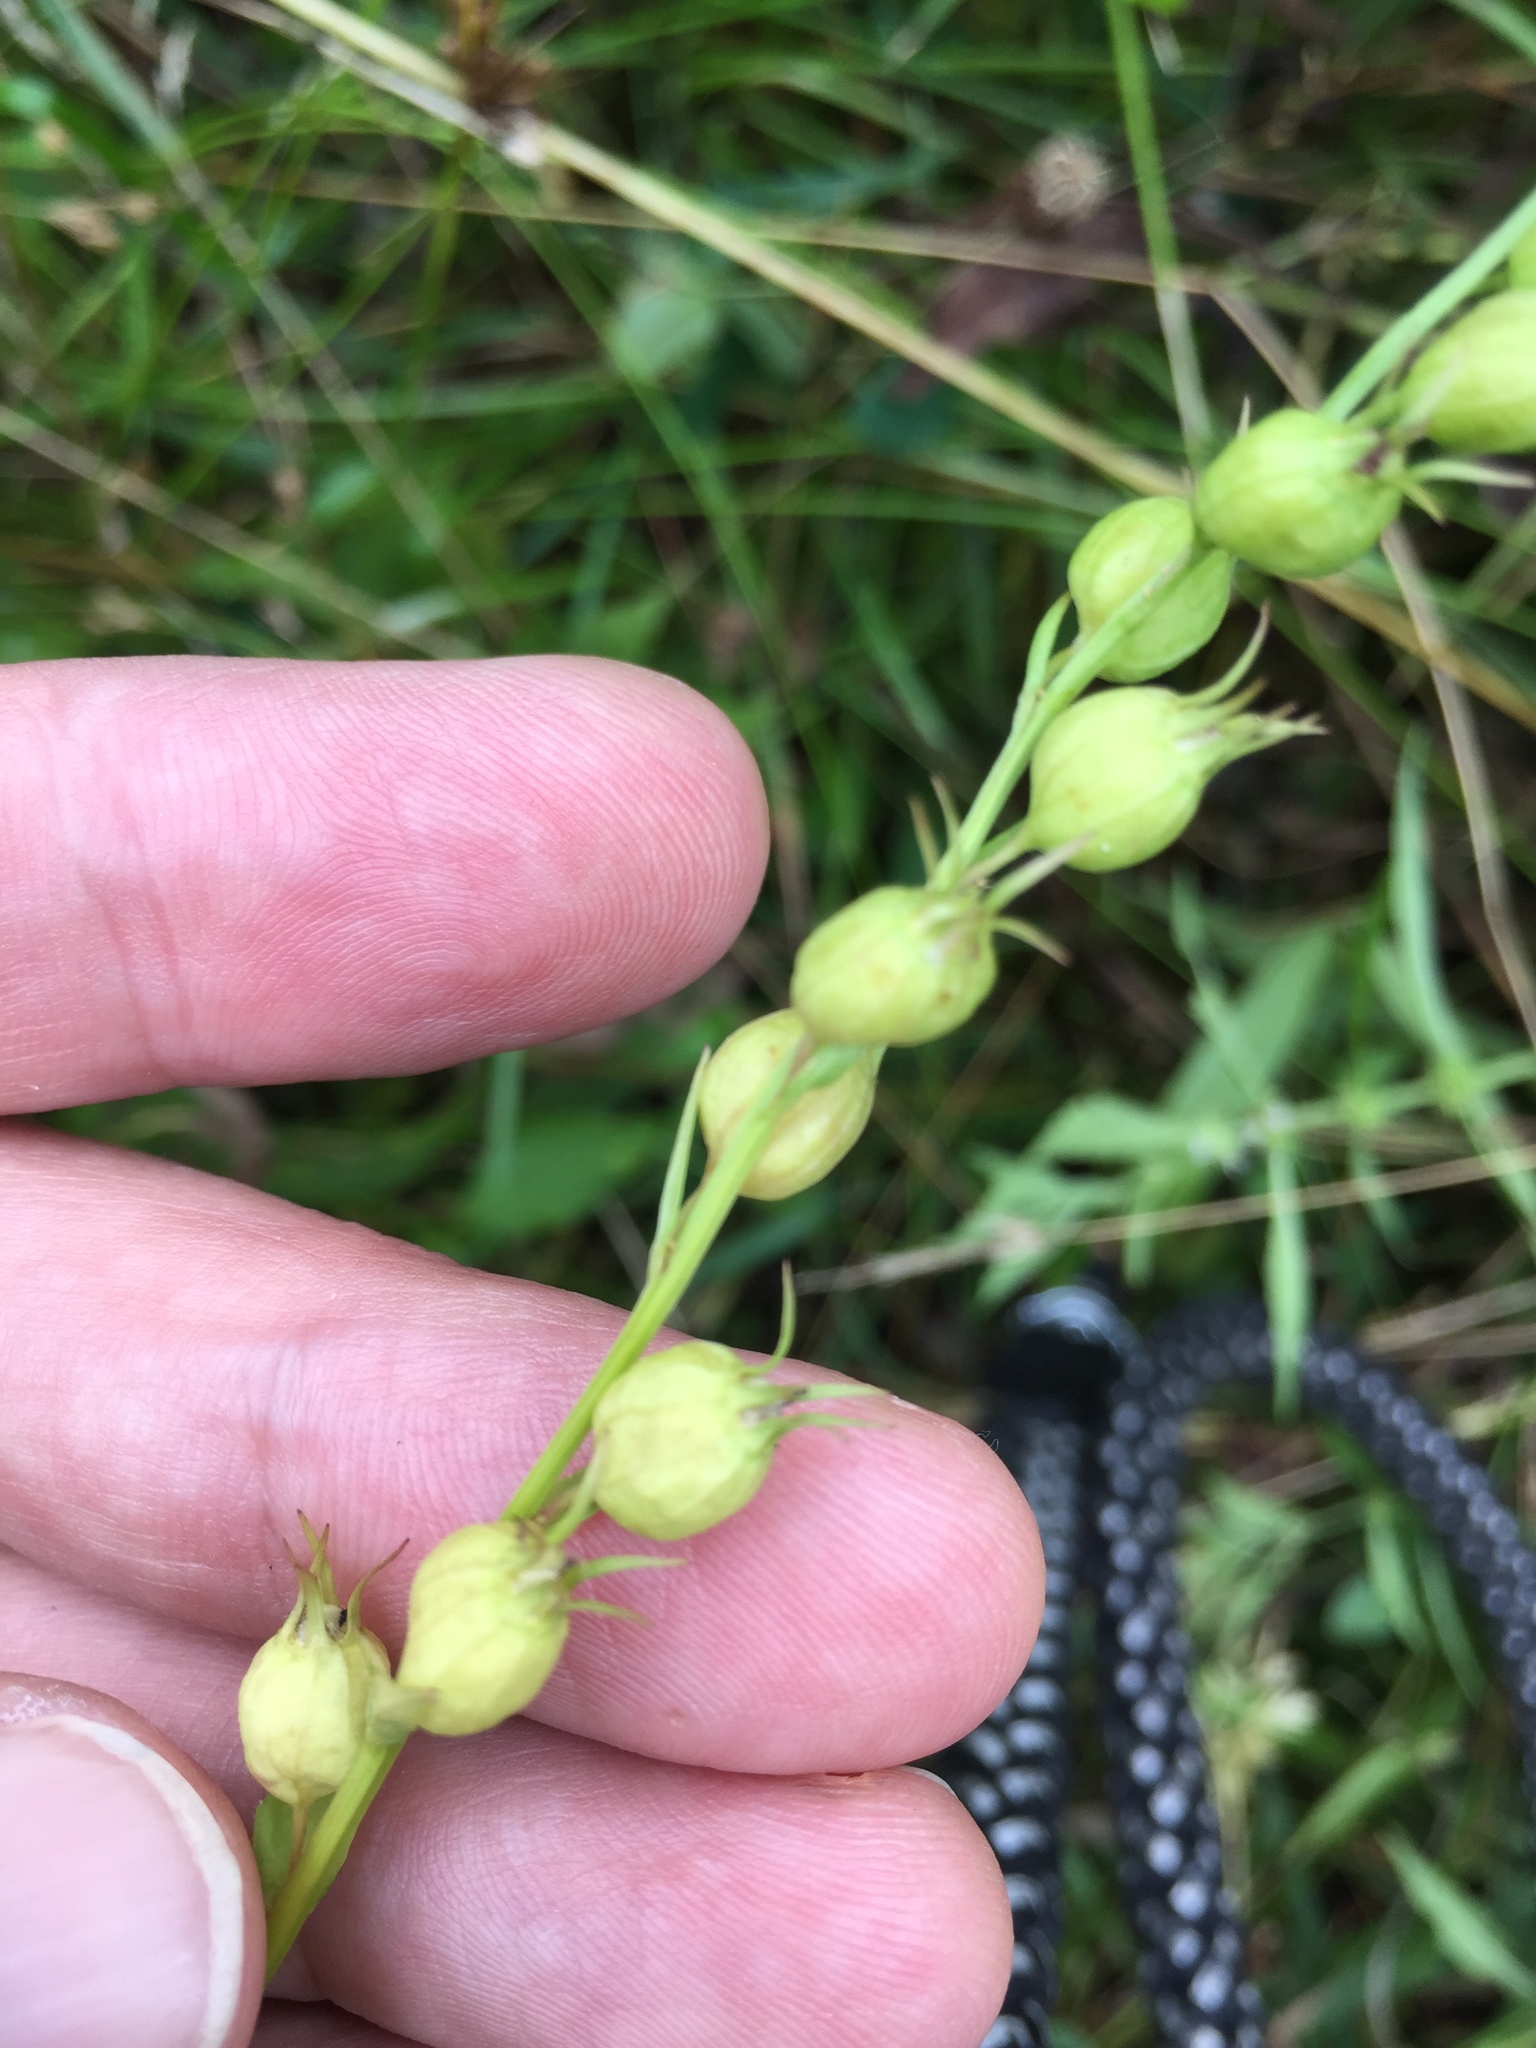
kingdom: Plantae
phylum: Tracheophyta
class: Magnoliopsida
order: Asterales
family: Campanulaceae
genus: Lobelia
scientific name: Lobelia inflata
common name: Indian tobacco
